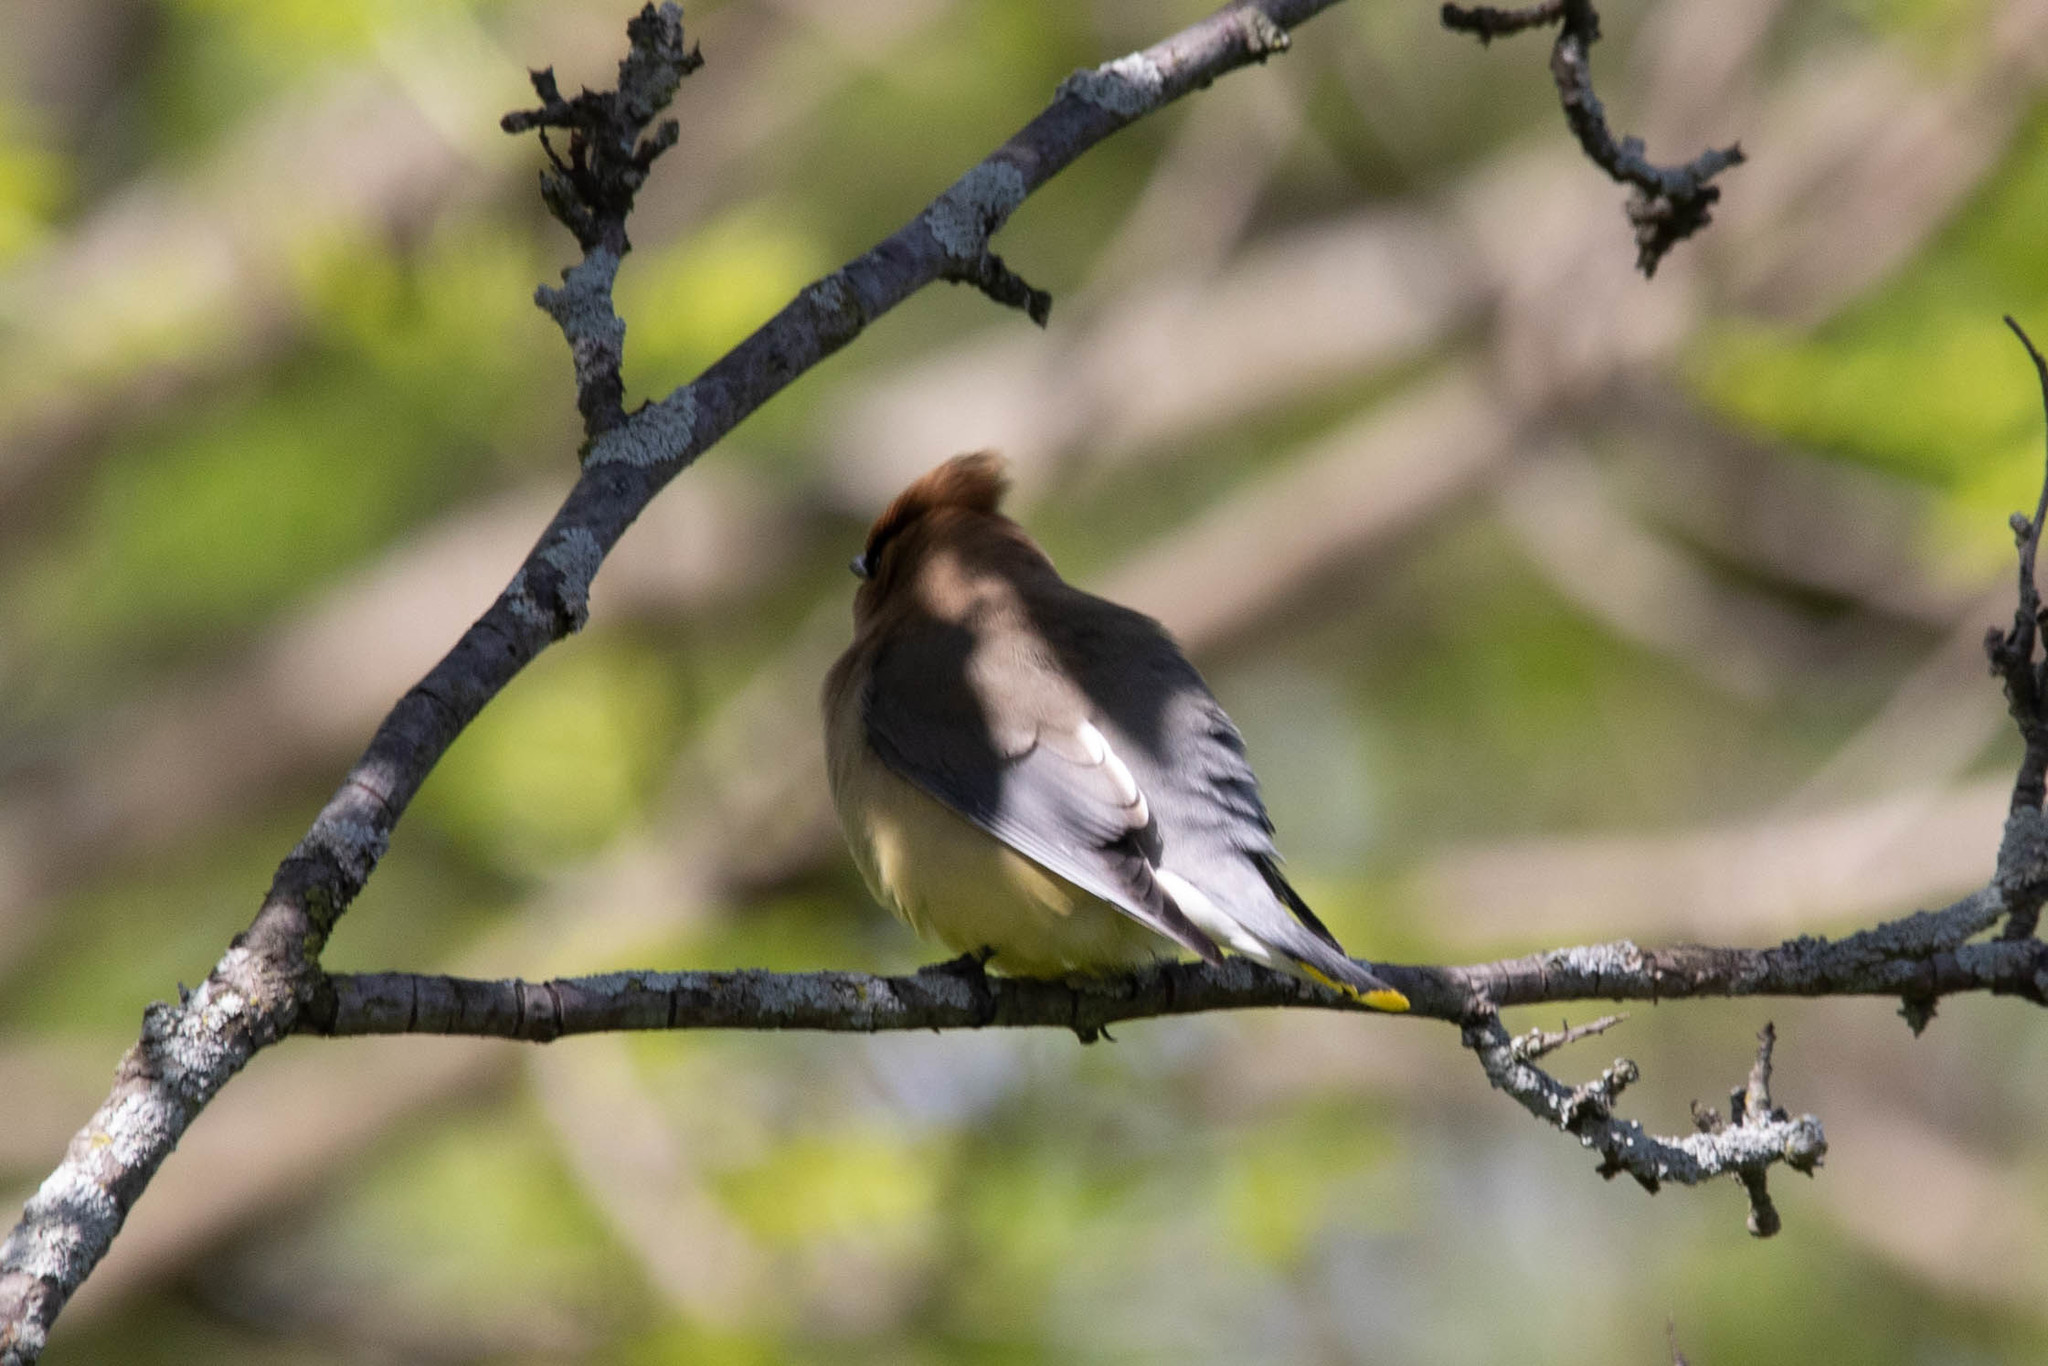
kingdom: Animalia
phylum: Chordata
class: Aves
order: Passeriformes
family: Bombycillidae
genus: Bombycilla
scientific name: Bombycilla cedrorum
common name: Cedar waxwing
